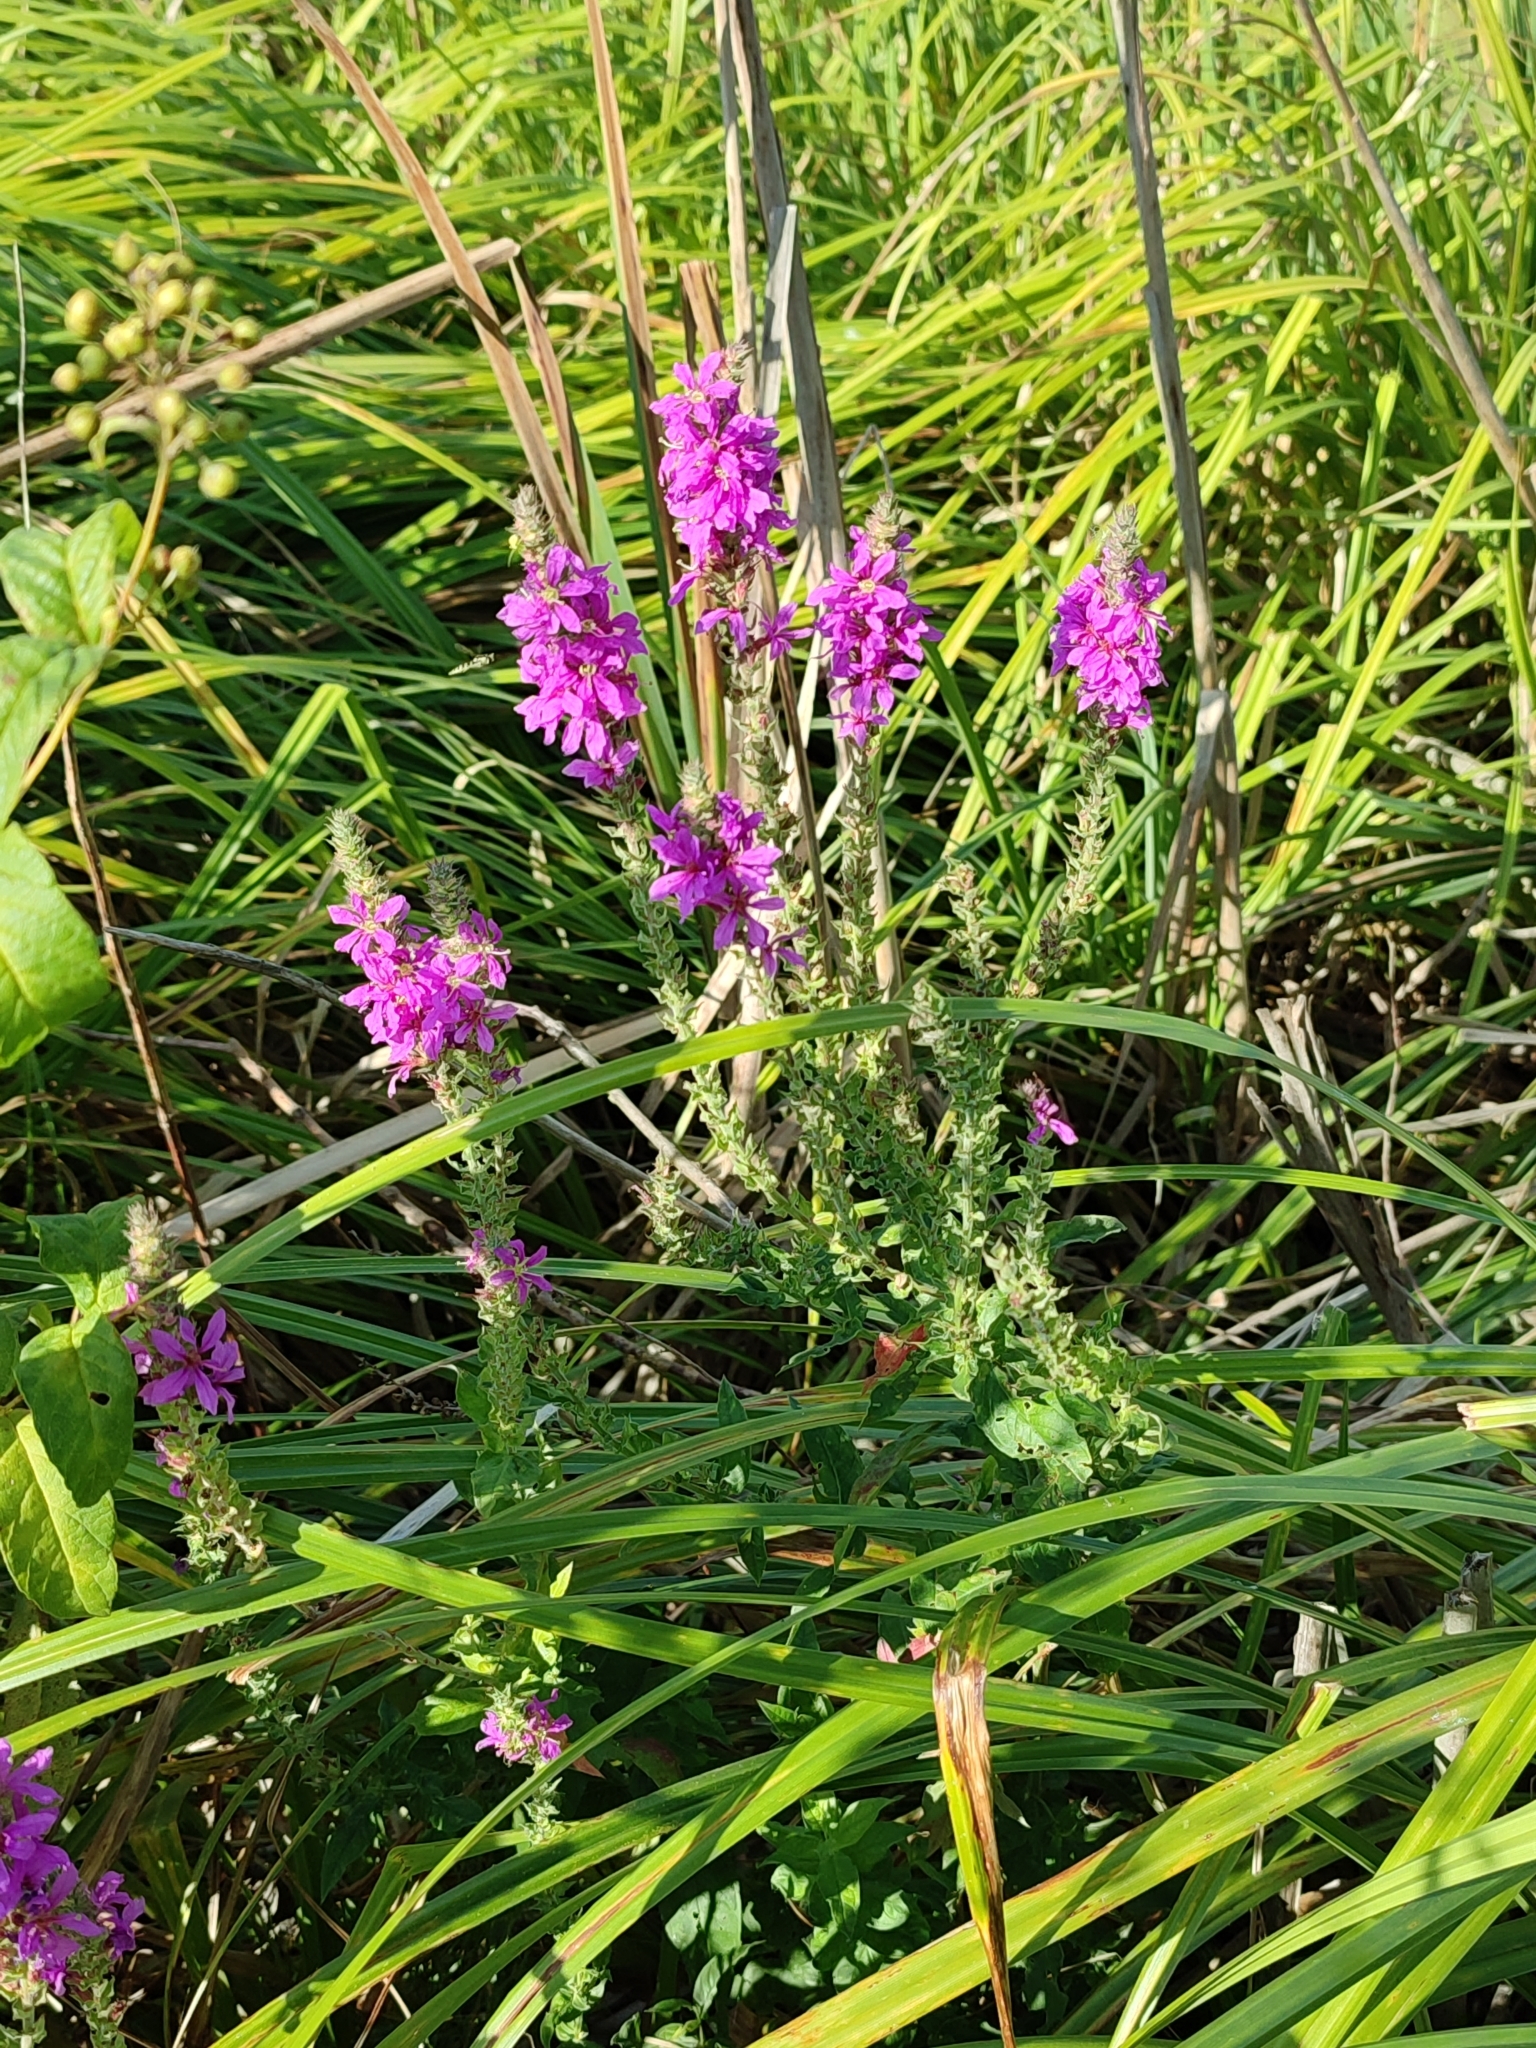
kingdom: Plantae
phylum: Tracheophyta
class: Magnoliopsida
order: Myrtales
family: Lythraceae
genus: Lythrum
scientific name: Lythrum salicaria
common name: Purple loosestrife
